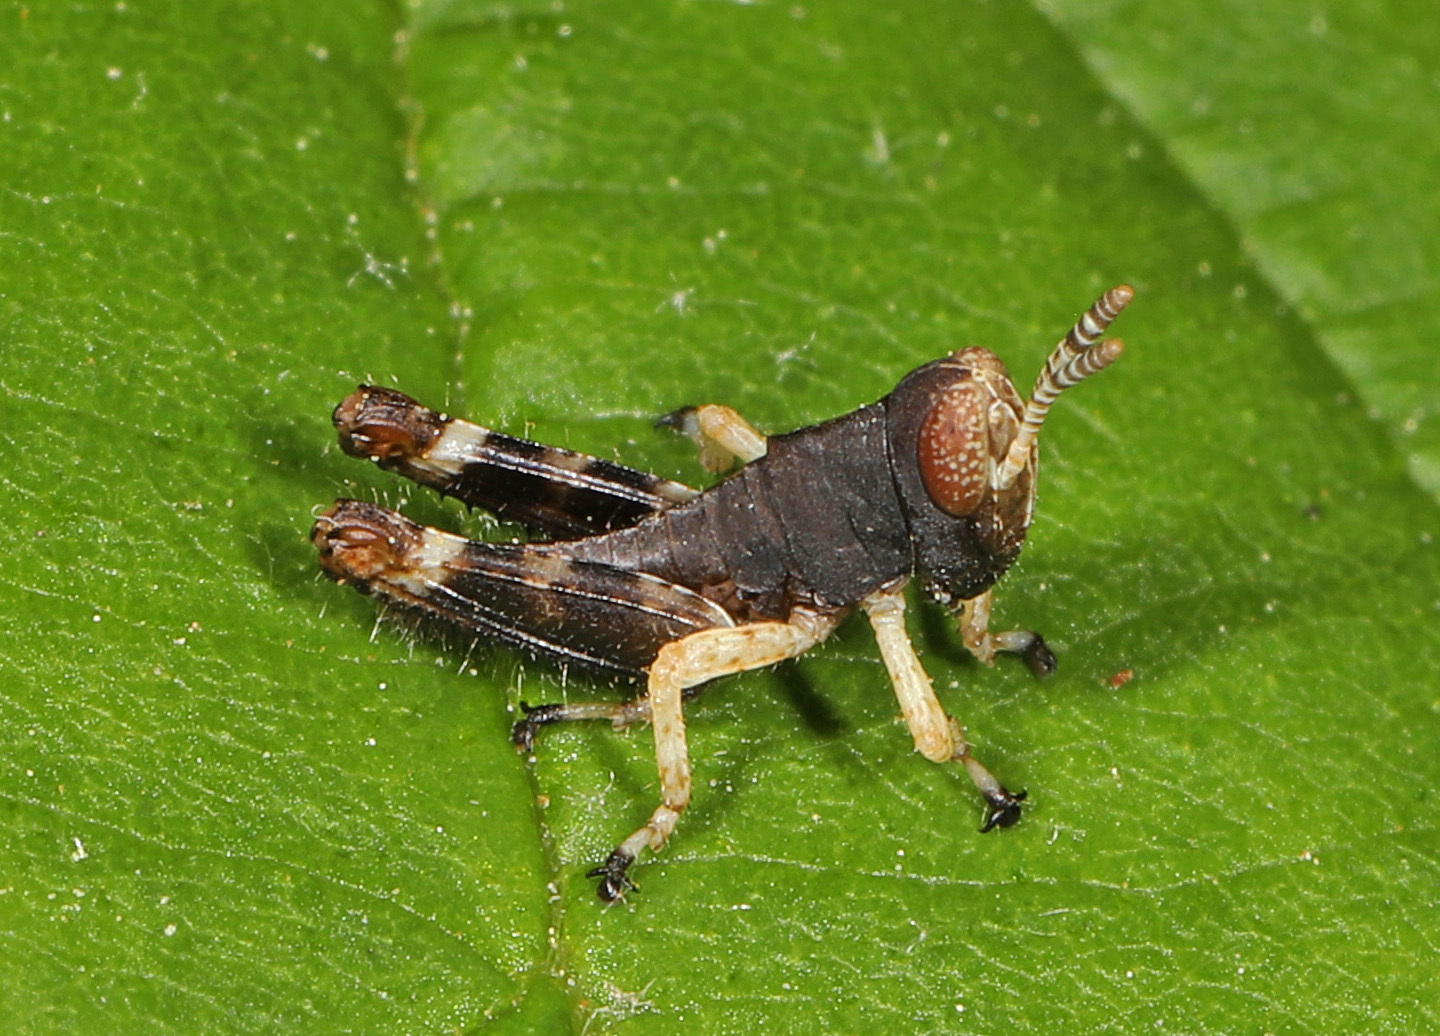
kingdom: Animalia
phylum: Arthropoda
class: Insecta
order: Orthoptera
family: Acrididae
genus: Melanoplus
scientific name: Melanoplus
